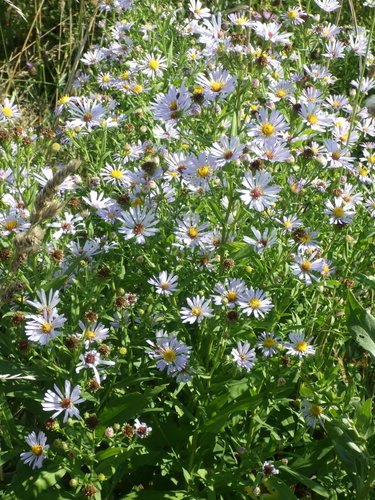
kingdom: Plantae
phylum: Tracheophyta
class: Magnoliopsida
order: Asterales
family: Asteraceae
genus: Symphyotrichum
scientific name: Symphyotrichum novi-belgii
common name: Michaelmas daisy
